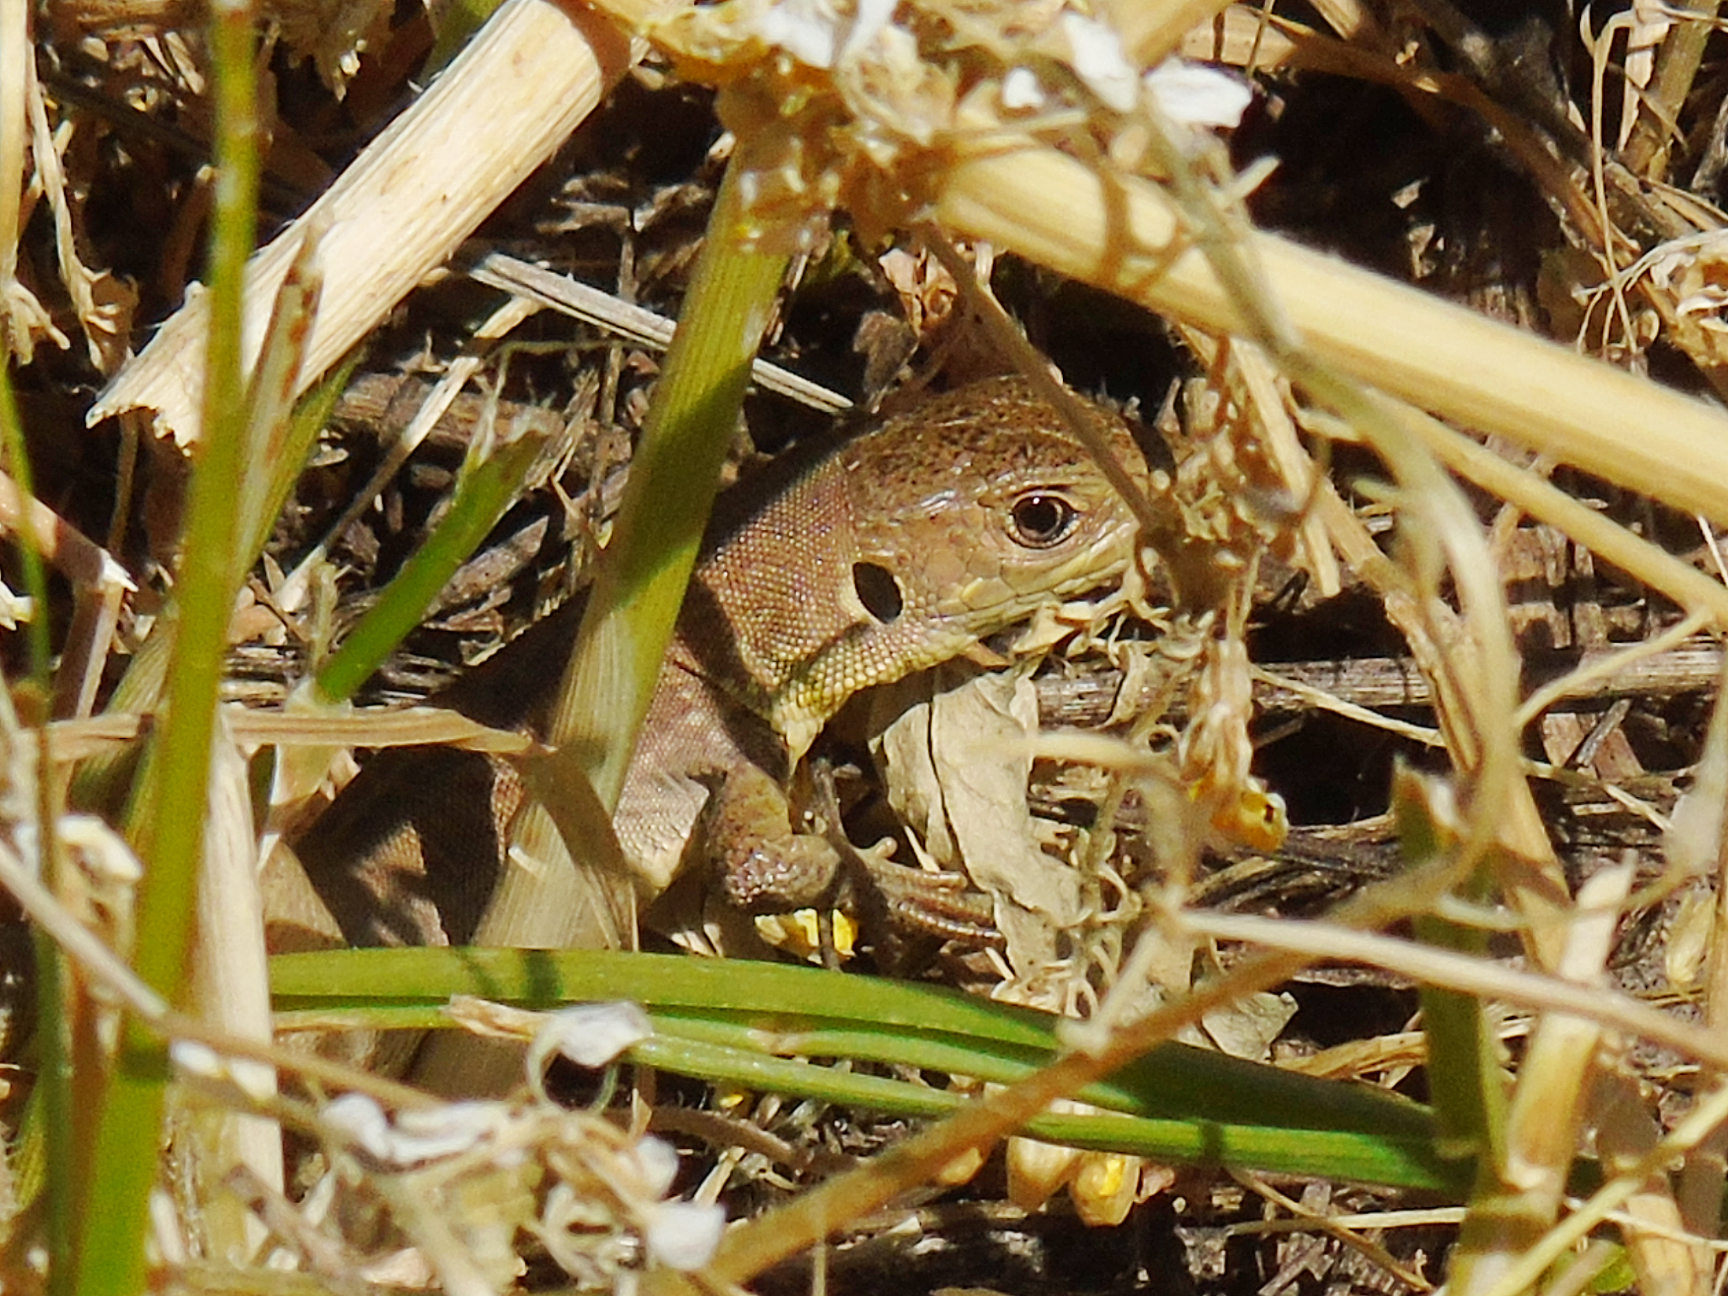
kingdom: Animalia
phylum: Chordata
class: Squamata
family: Lacertidae
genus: Lacerta
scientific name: Lacerta trilineata
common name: Balkan green lizard
